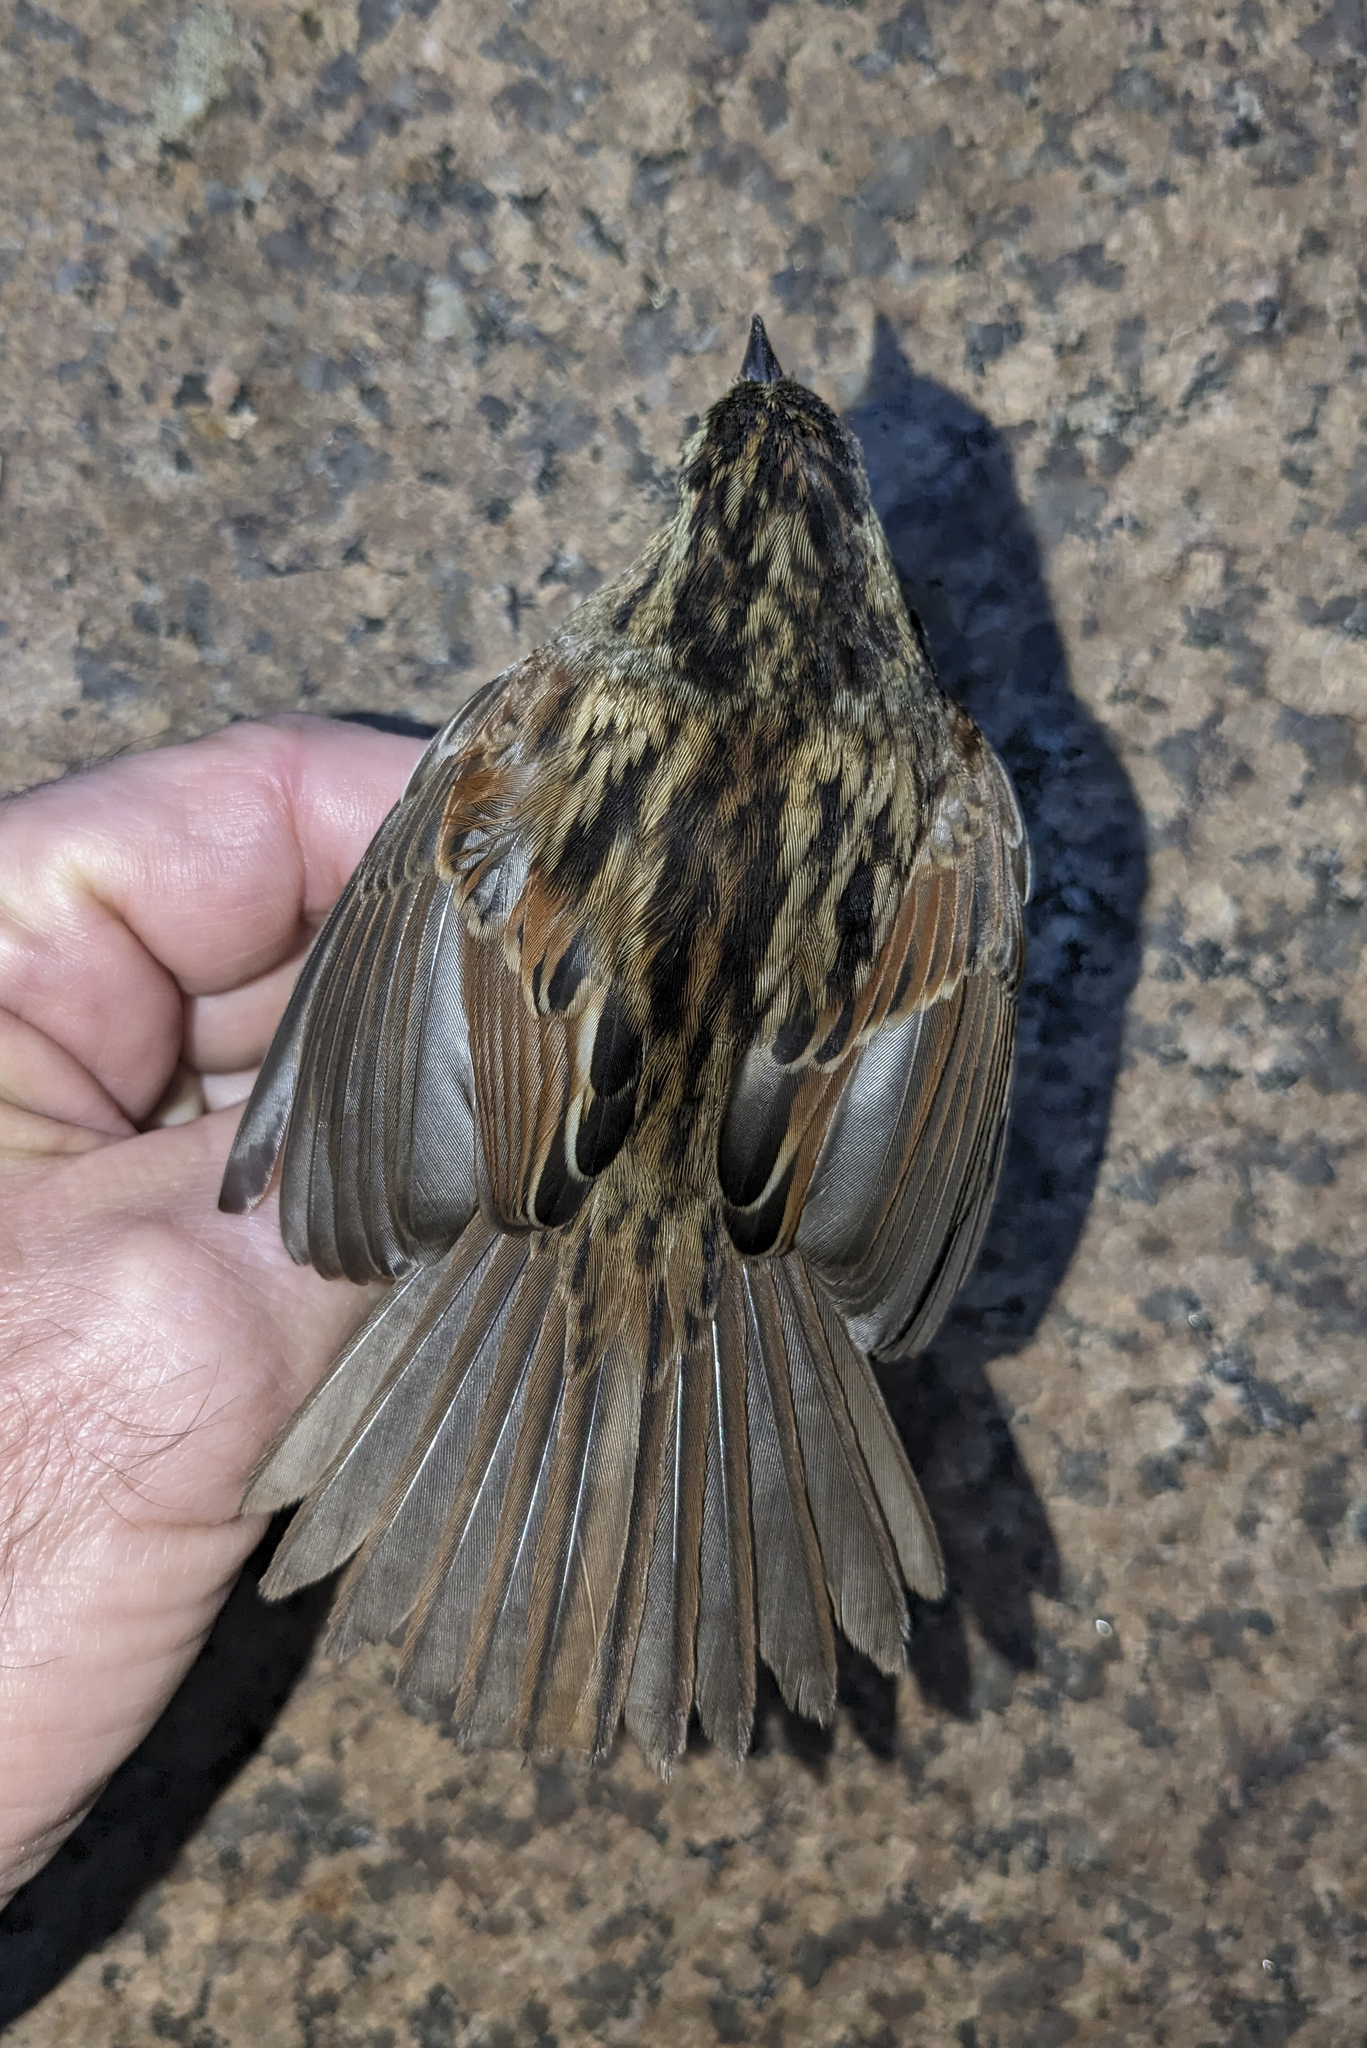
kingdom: Animalia
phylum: Chordata
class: Aves
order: Passeriformes
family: Passerellidae
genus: Melospiza
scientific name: Melospiza georgiana
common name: Swamp sparrow
